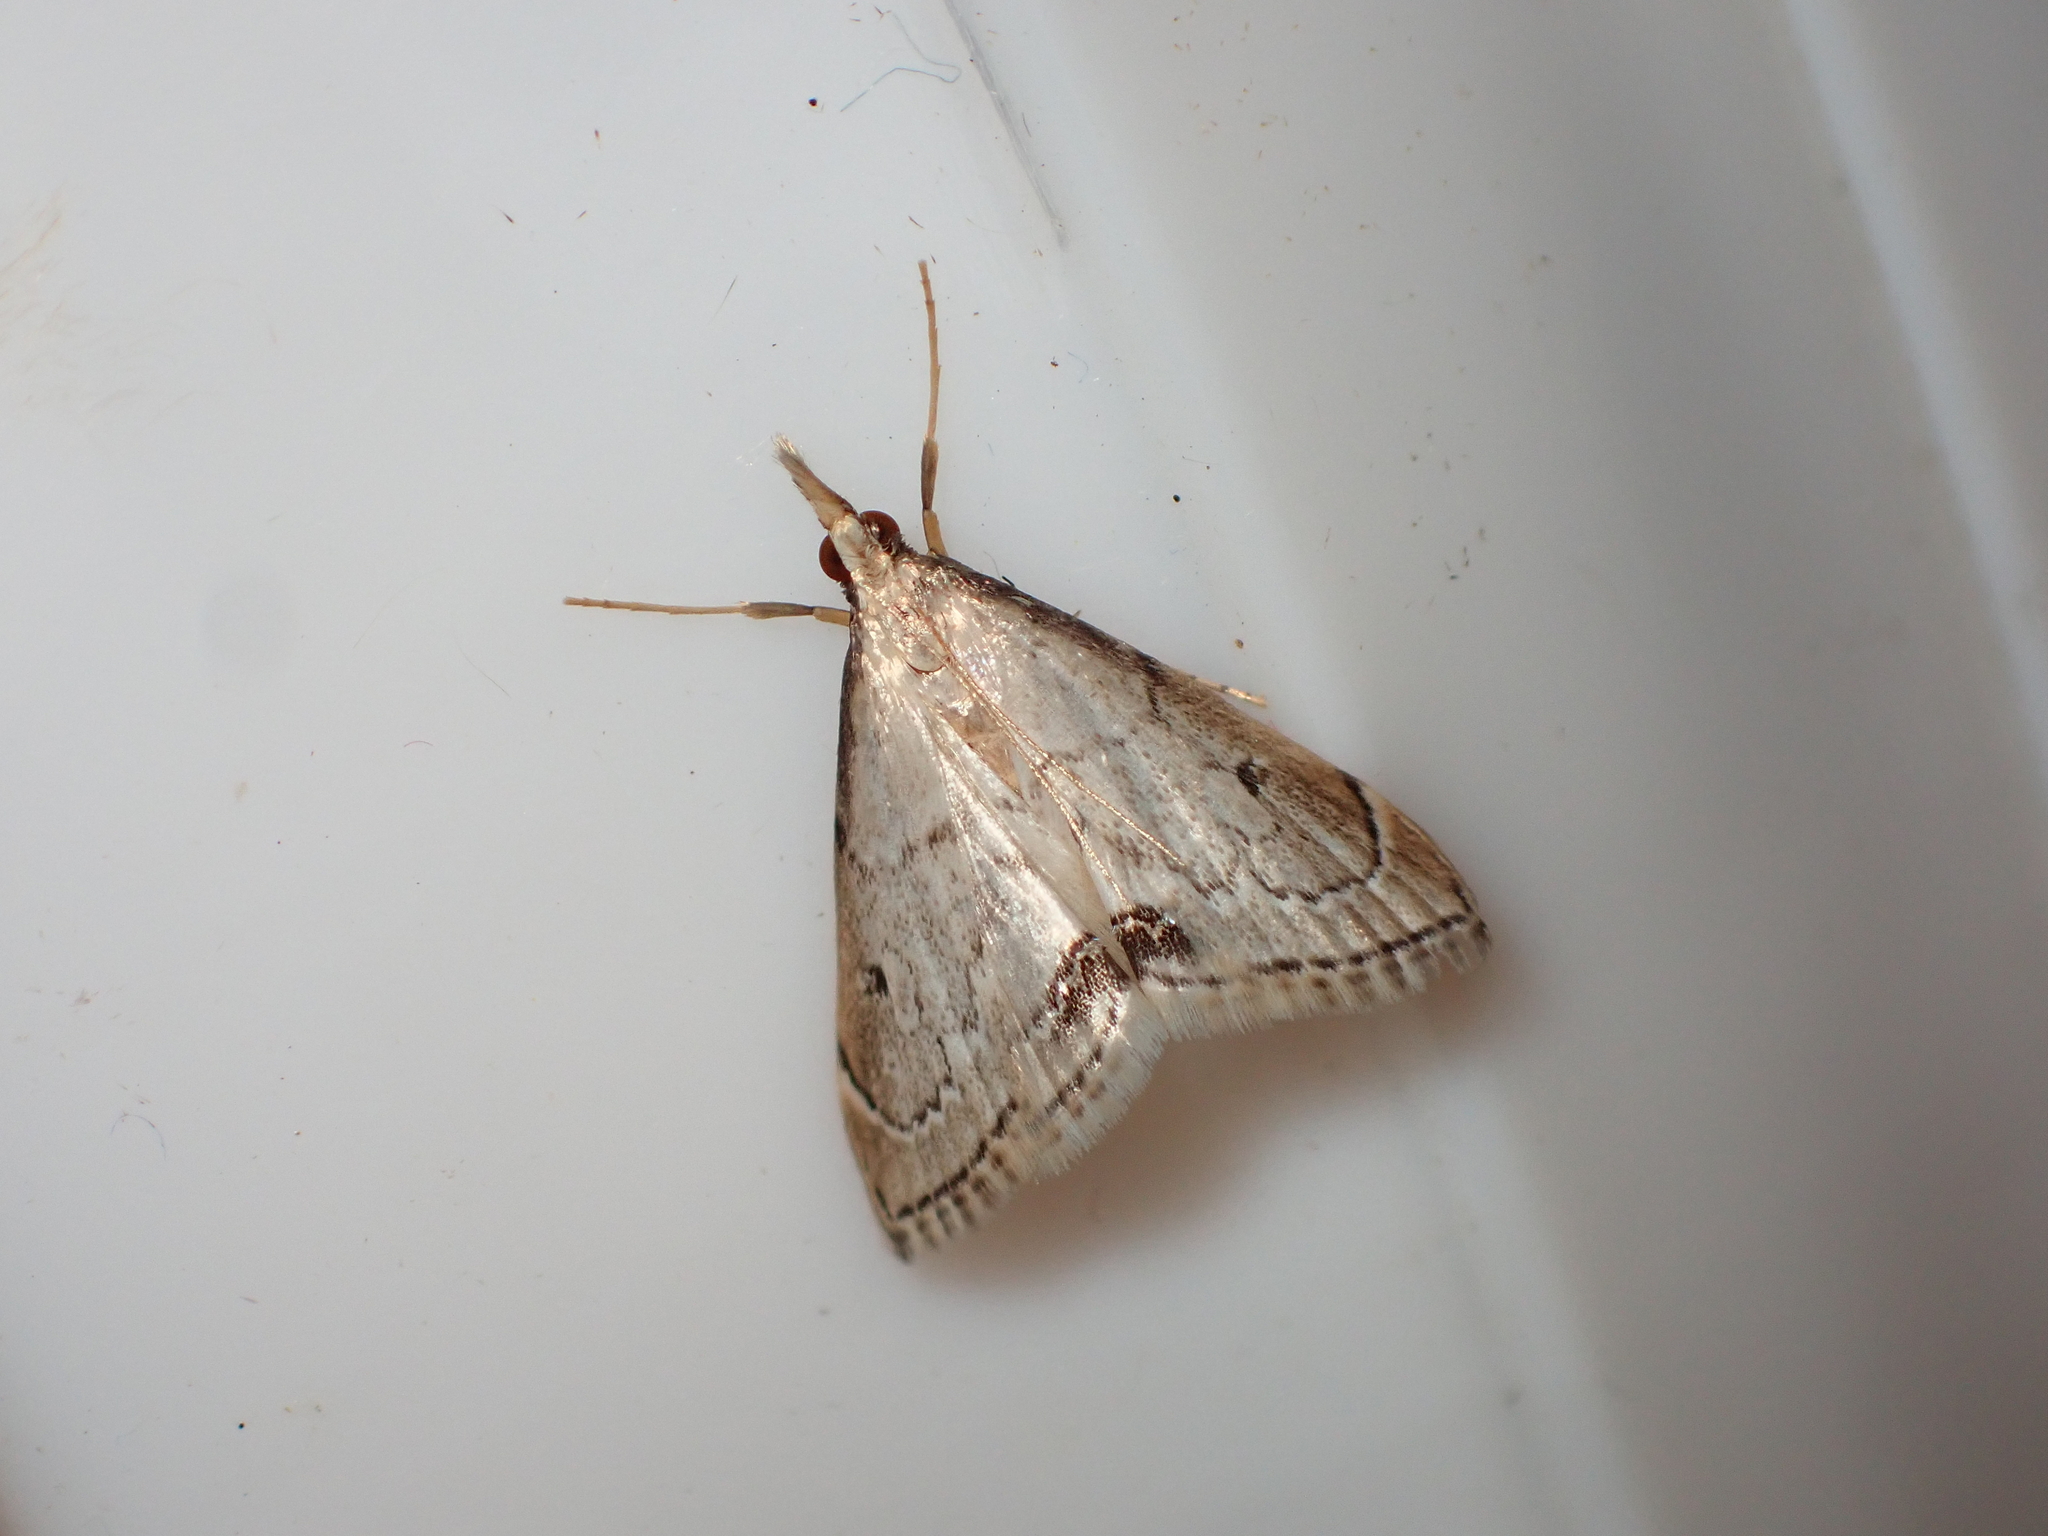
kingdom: Animalia
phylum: Arthropoda
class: Insecta
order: Lepidoptera
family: Crambidae
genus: Clepsicosma
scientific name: Clepsicosma iridia
